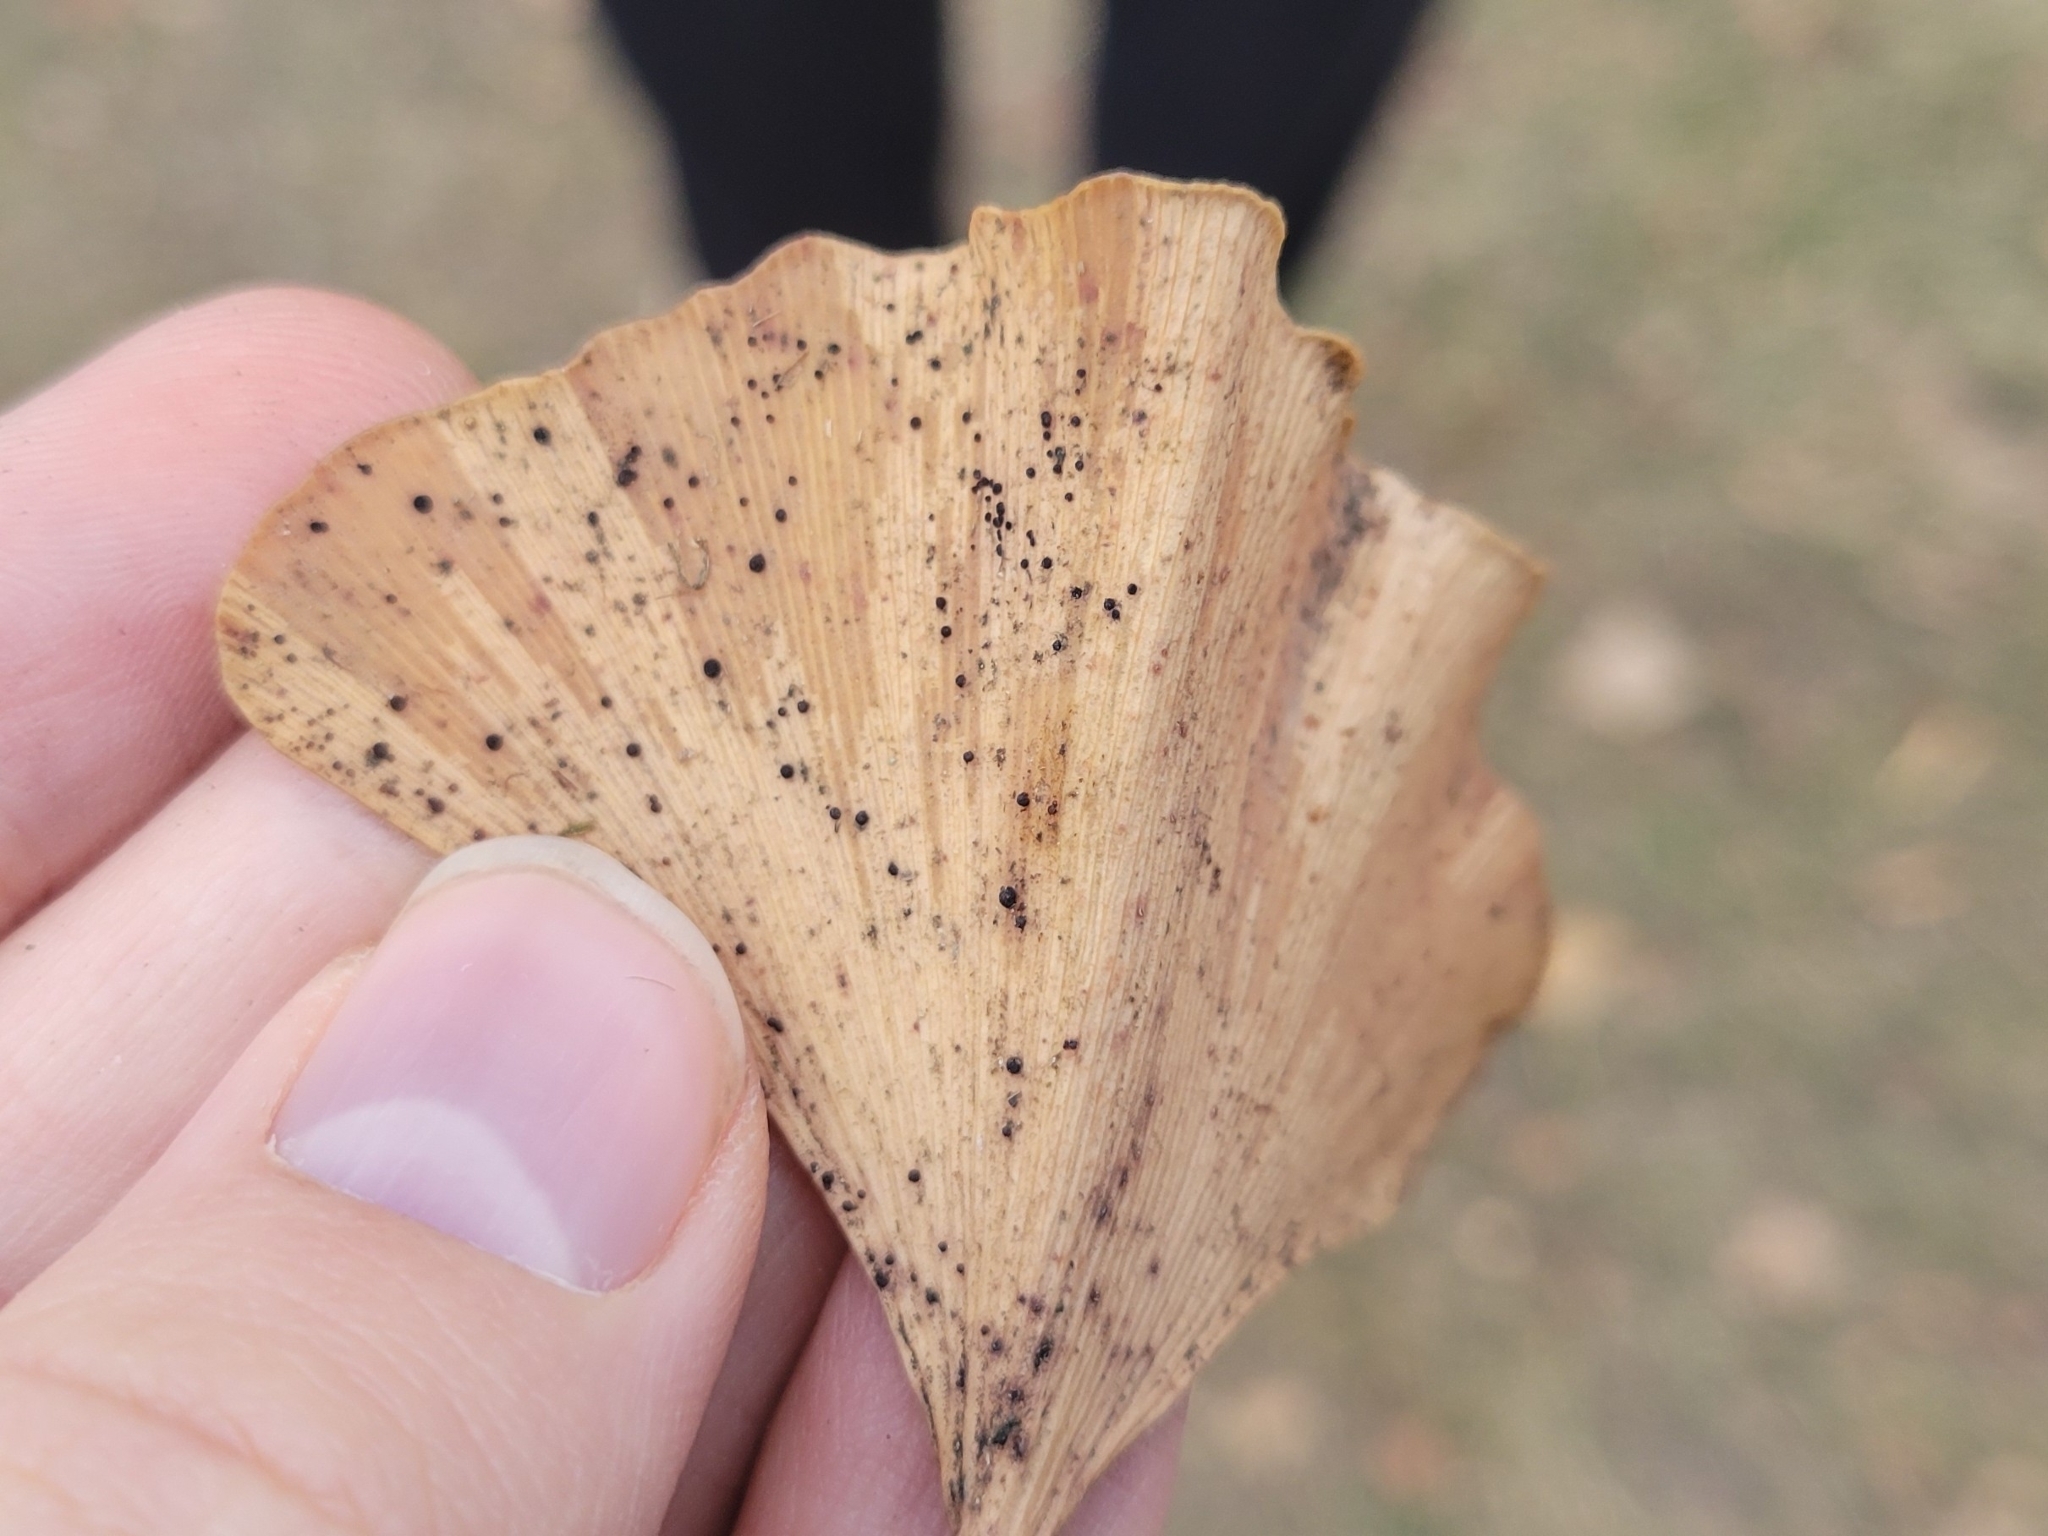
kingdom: Fungi
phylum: Basidiomycota
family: Bartheletiaceae
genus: Bartheletia
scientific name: Bartheletia paradoxa
